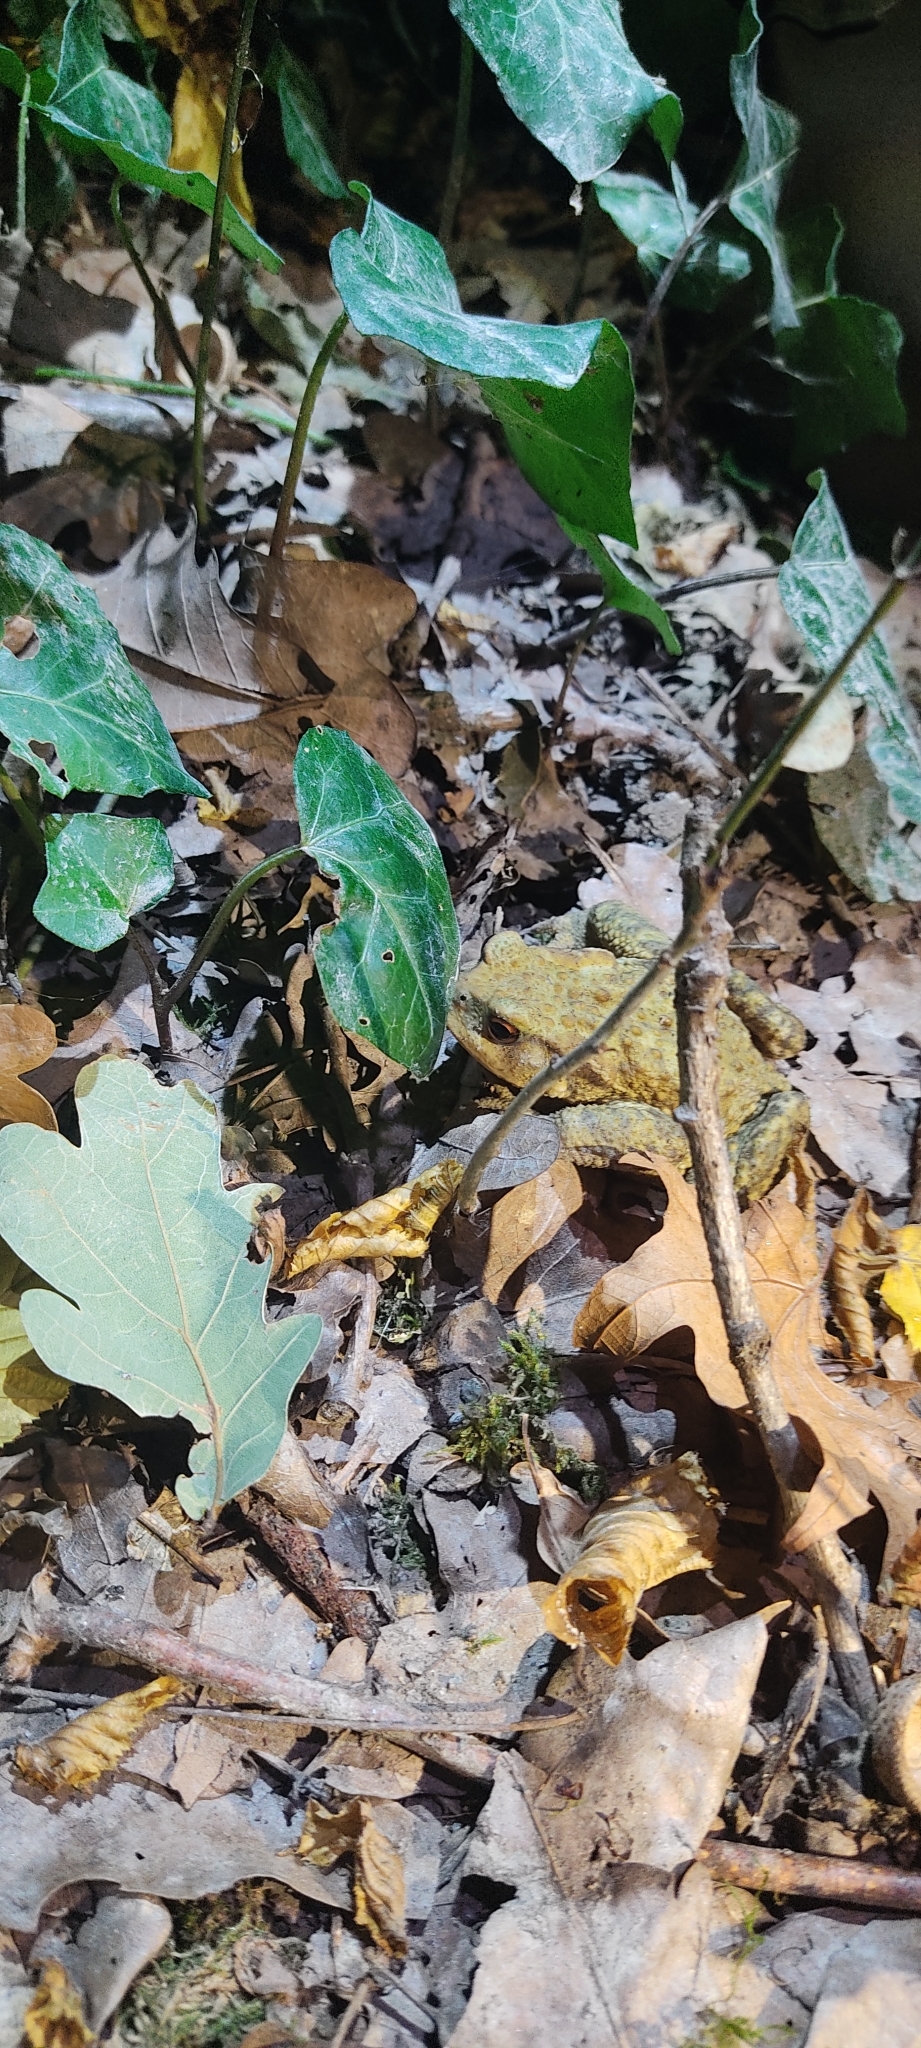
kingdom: Animalia
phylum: Chordata
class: Amphibia
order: Anura
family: Bufonidae
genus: Bufo
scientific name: Bufo spinosus
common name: Western common toad
